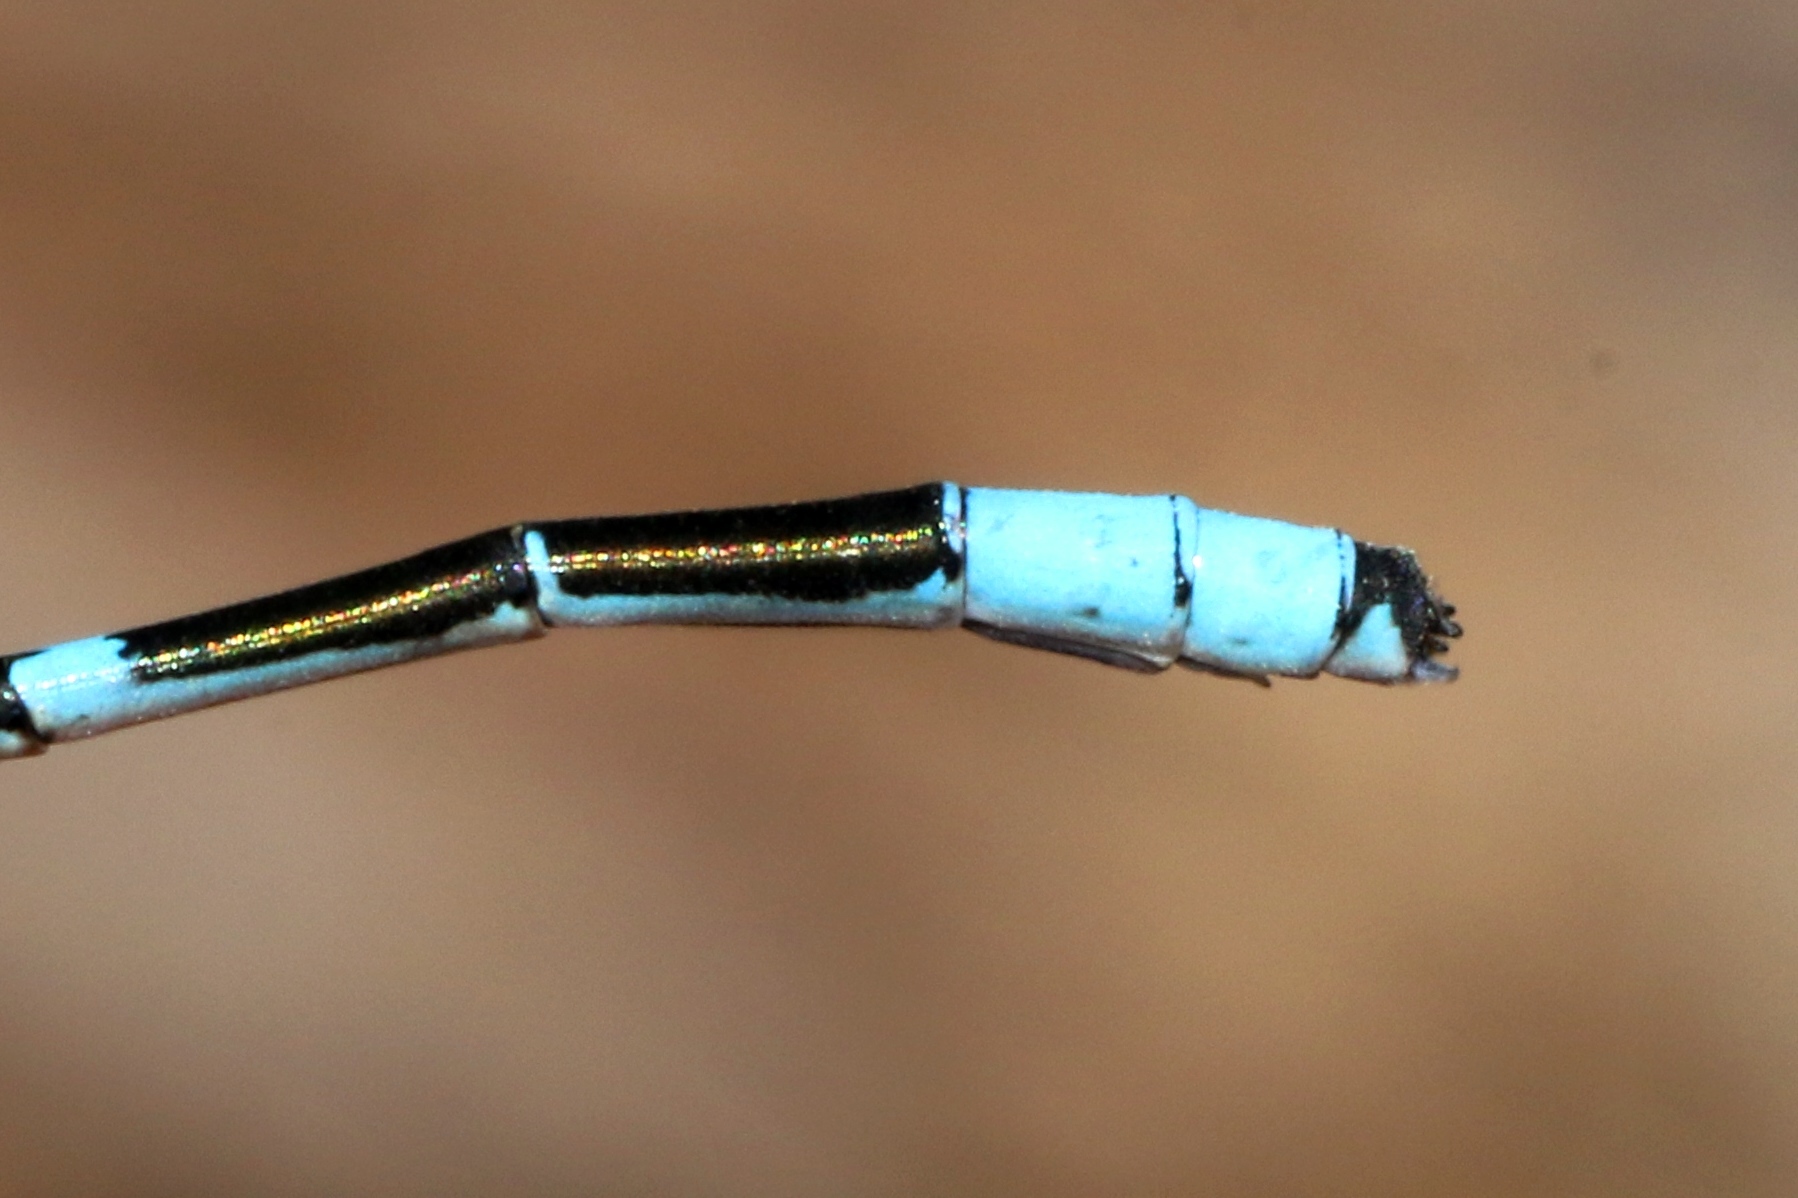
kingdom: Animalia
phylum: Arthropoda
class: Insecta
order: Odonata
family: Coenagrionidae
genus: Enallagma
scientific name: Enallagma hageni
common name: Hagen's bluet
